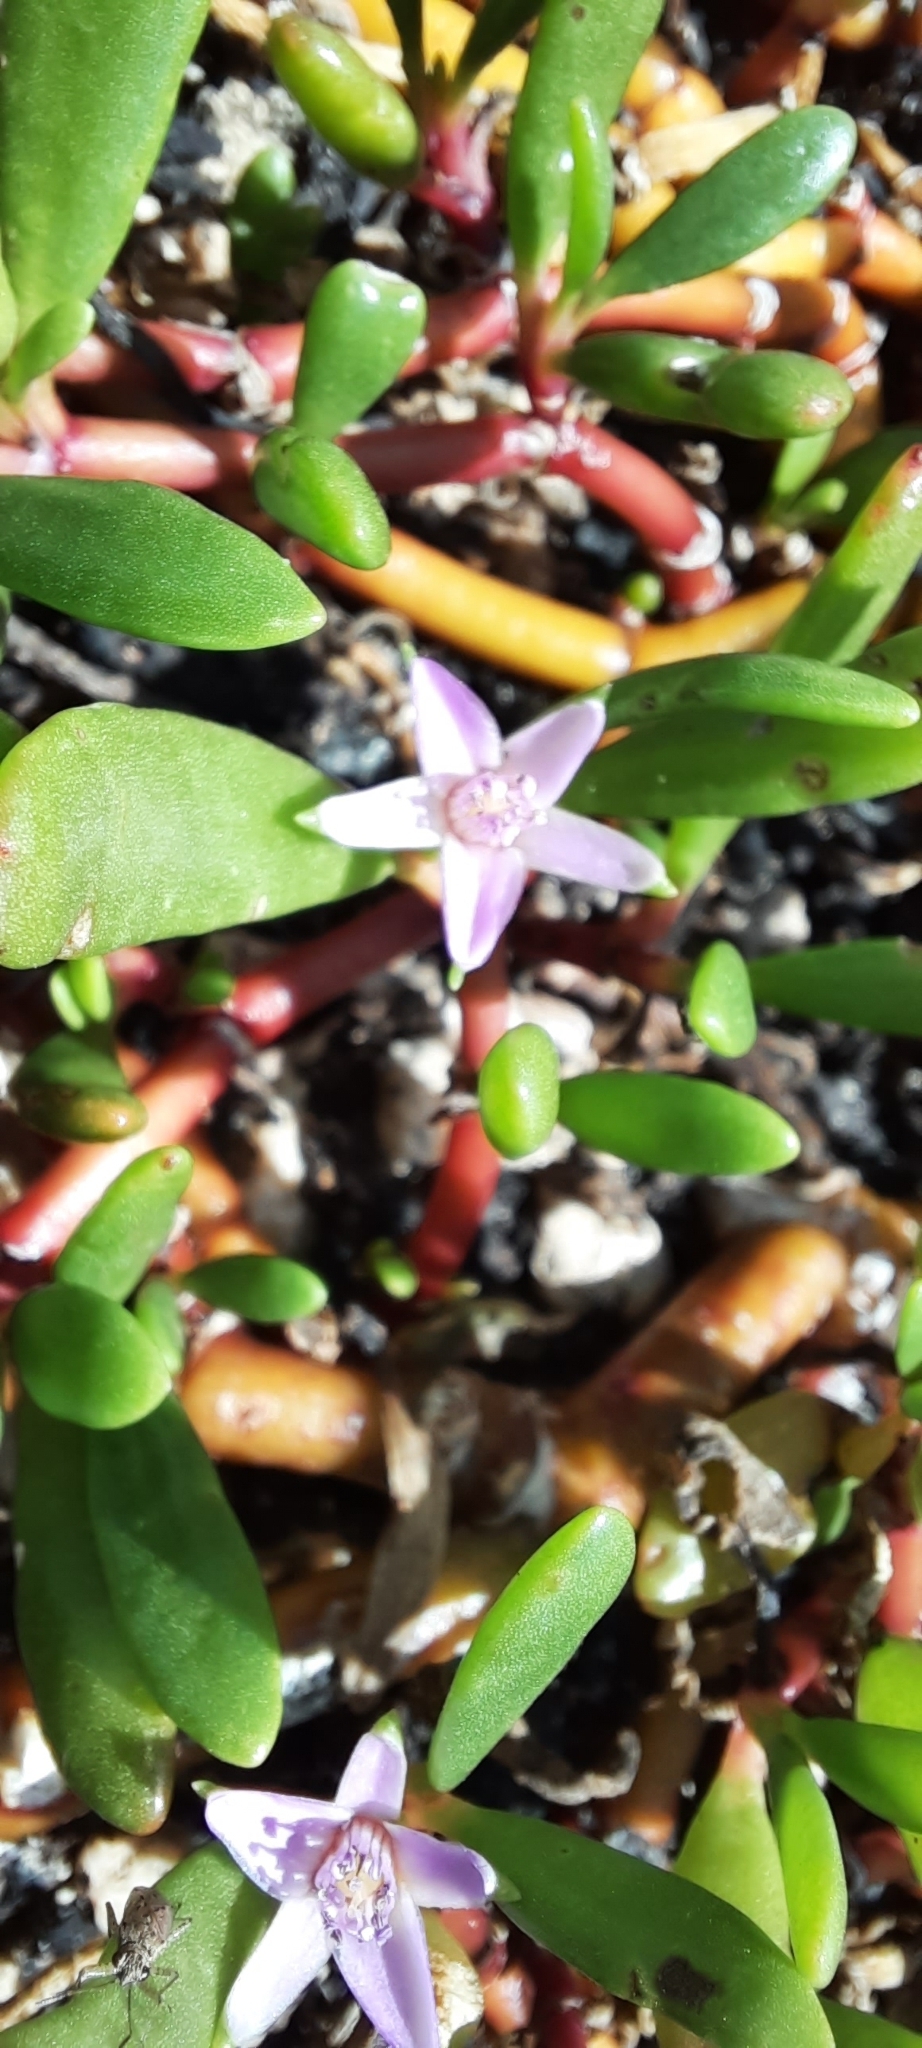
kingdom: Plantae
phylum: Tracheophyta
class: Magnoliopsida
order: Caryophyllales
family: Aizoaceae
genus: Sesuvium
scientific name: Sesuvium portulacastrum
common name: Sea-purslane
